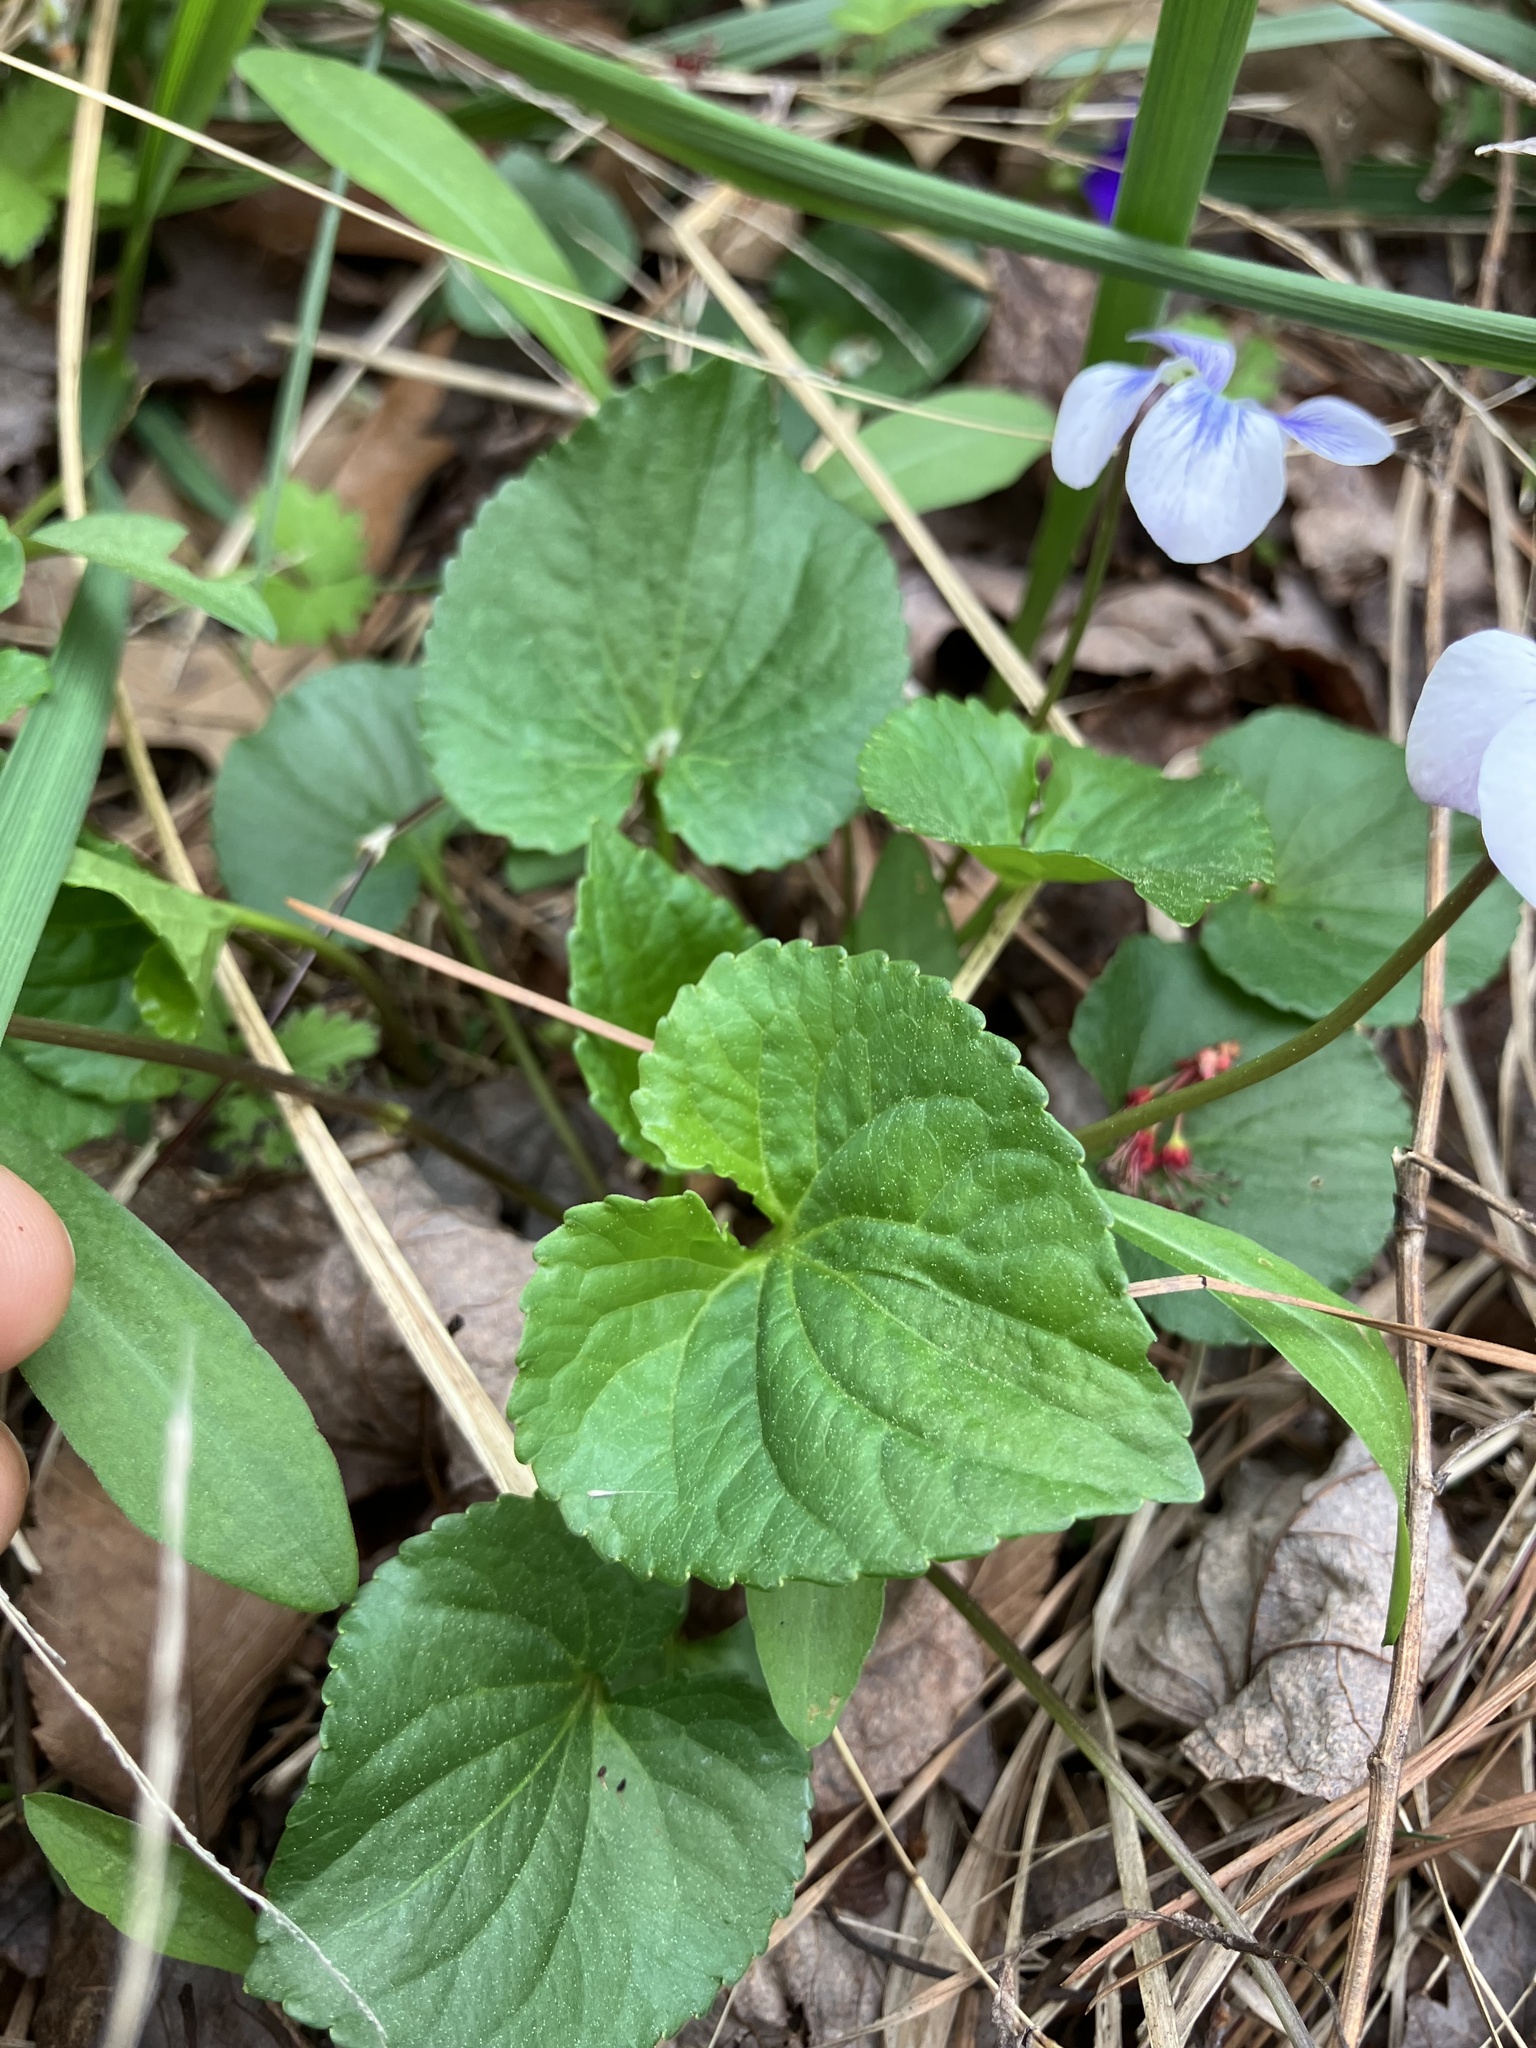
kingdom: Plantae
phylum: Tracheophyta
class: Magnoliopsida
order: Malpighiales
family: Violaceae
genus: Viola
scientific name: Viola communis
